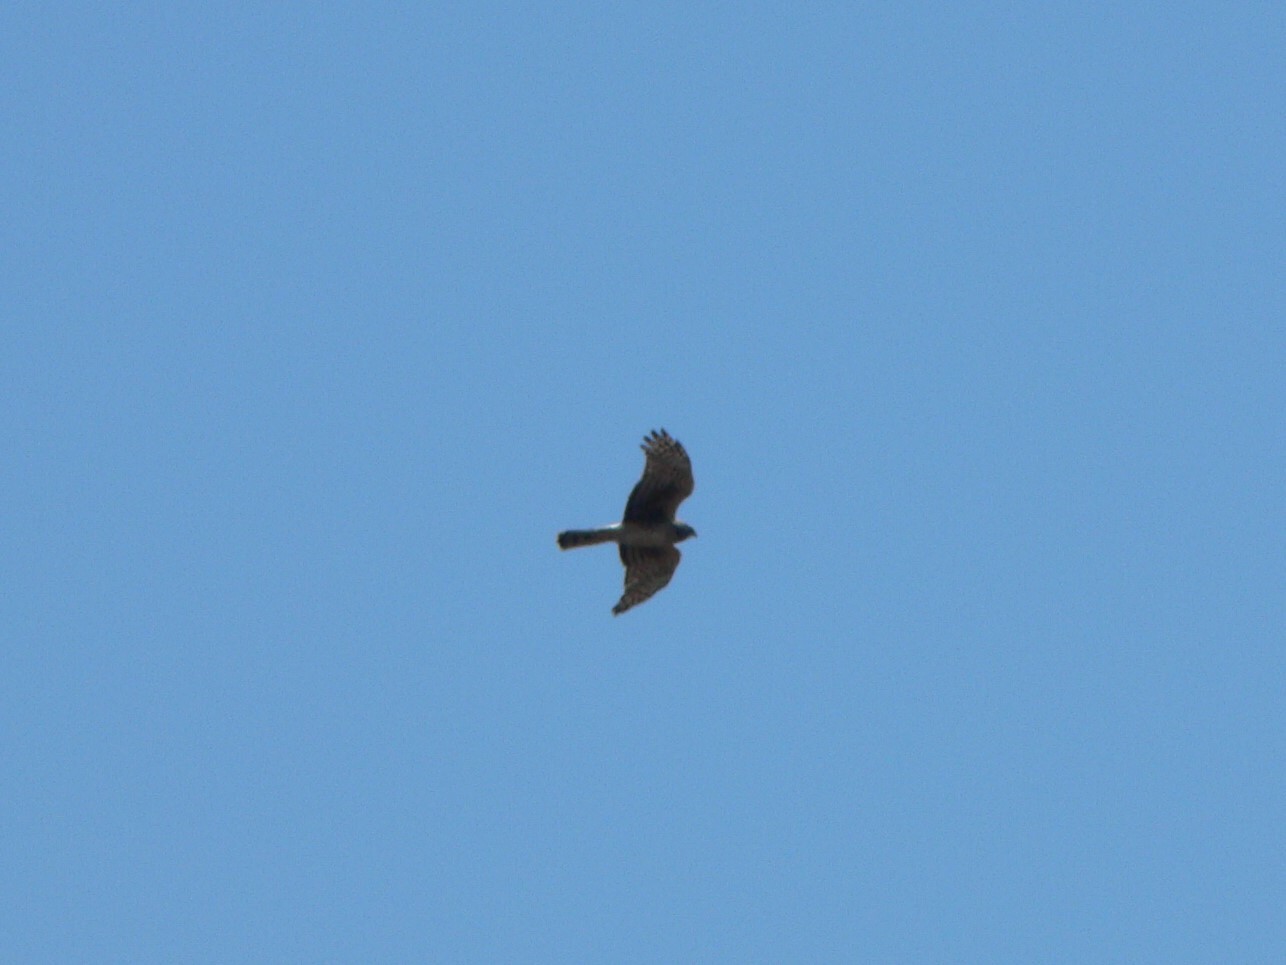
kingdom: Animalia
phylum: Chordata
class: Aves
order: Accipitriformes
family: Accipitridae
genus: Circus
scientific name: Circus cyaneus
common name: Hen harrier
